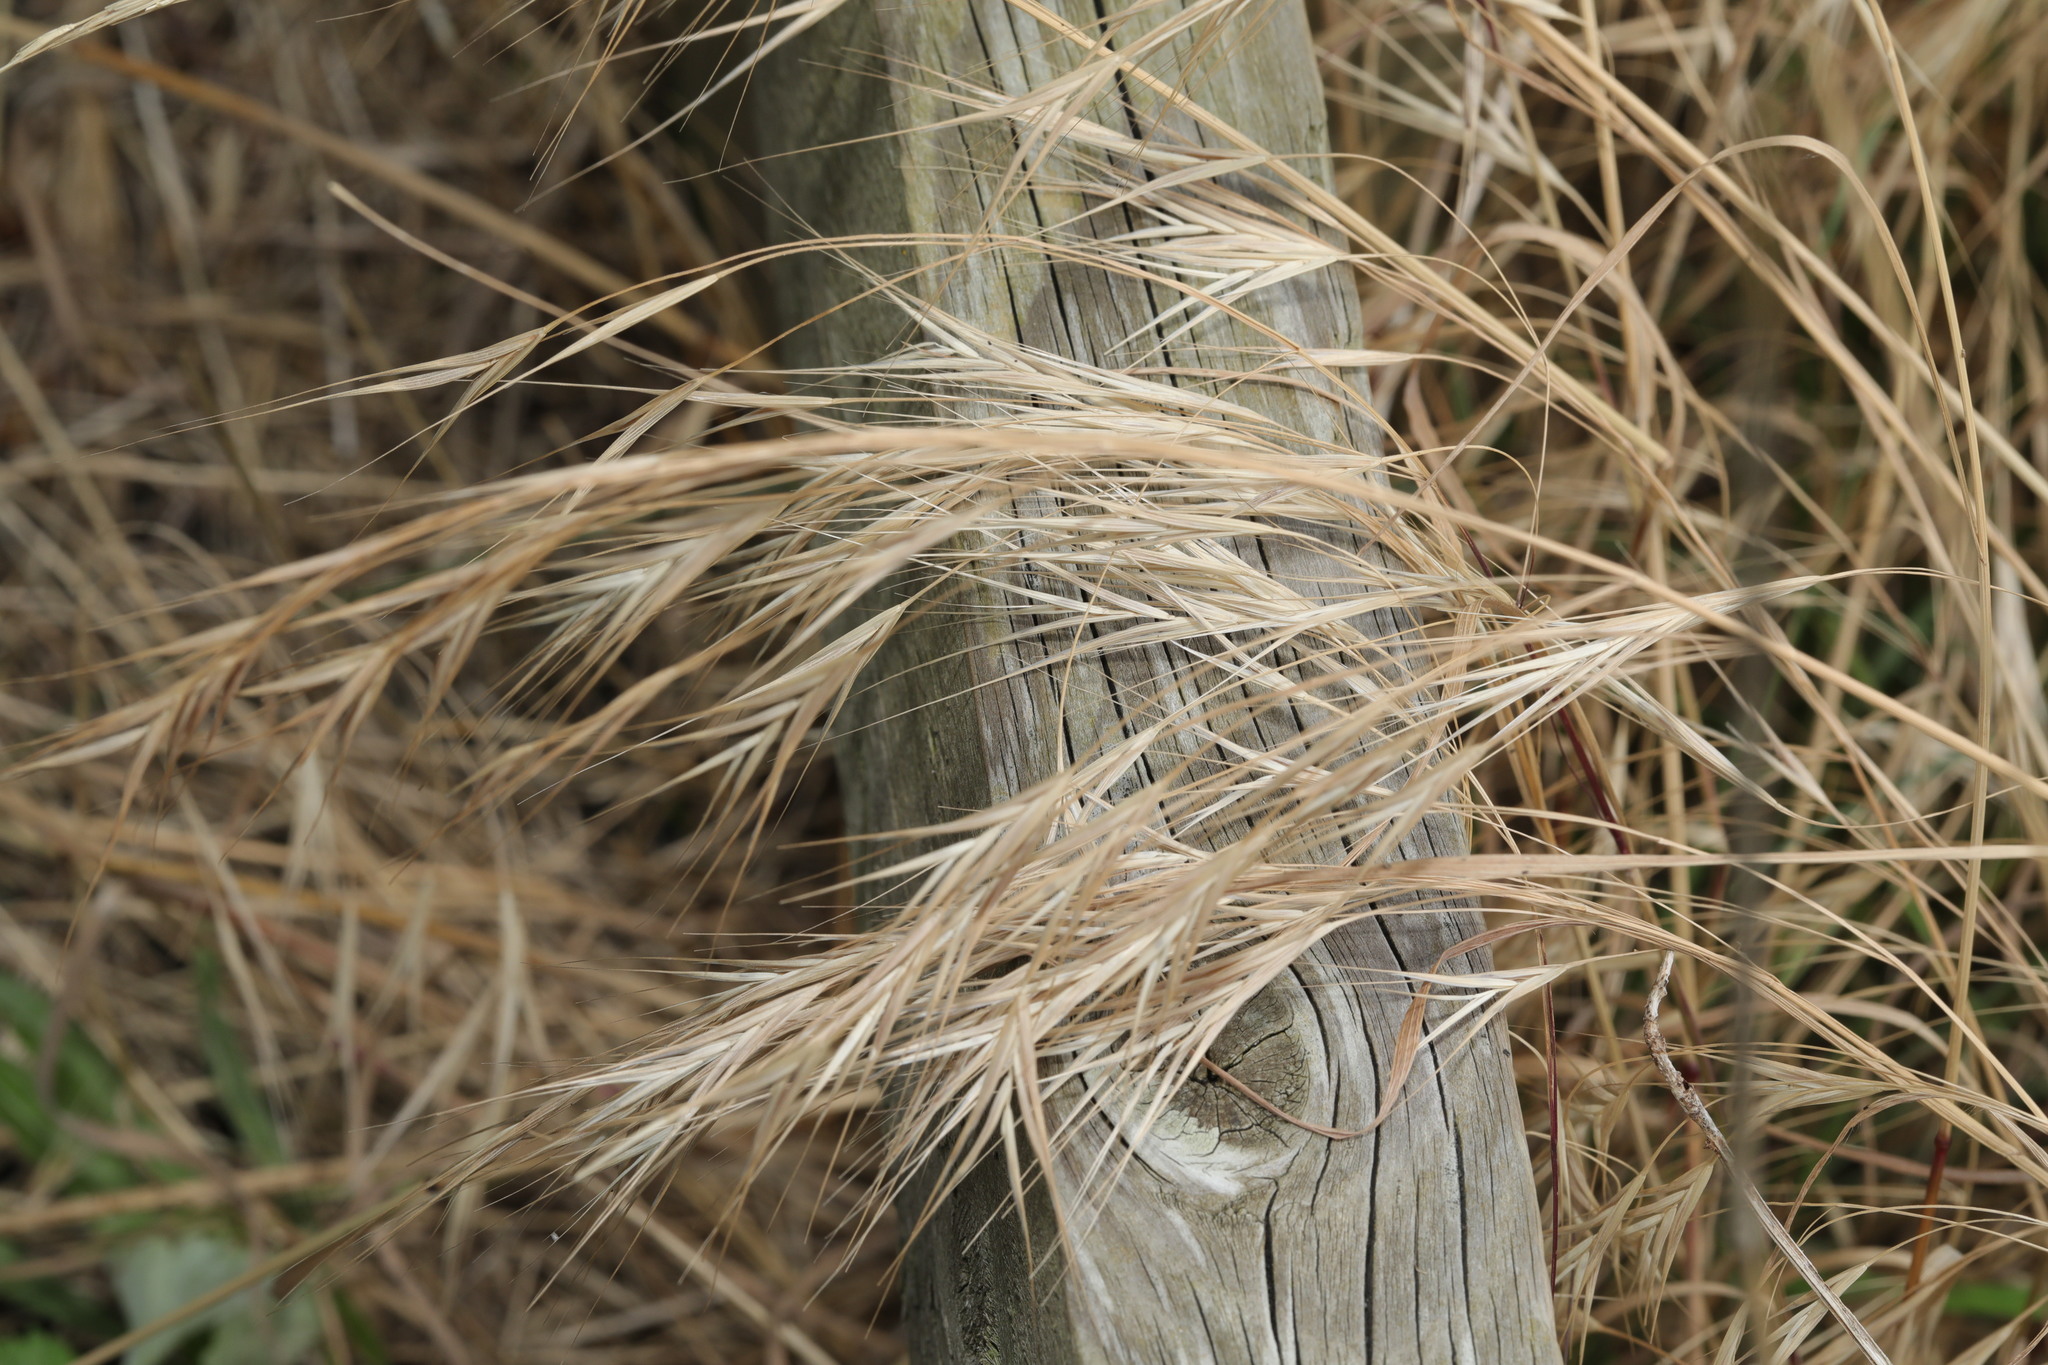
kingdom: Plantae
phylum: Tracheophyta
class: Liliopsida
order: Poales
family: Poaceae
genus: Bromus
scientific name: Bromus sterilis
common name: Poverty brome
